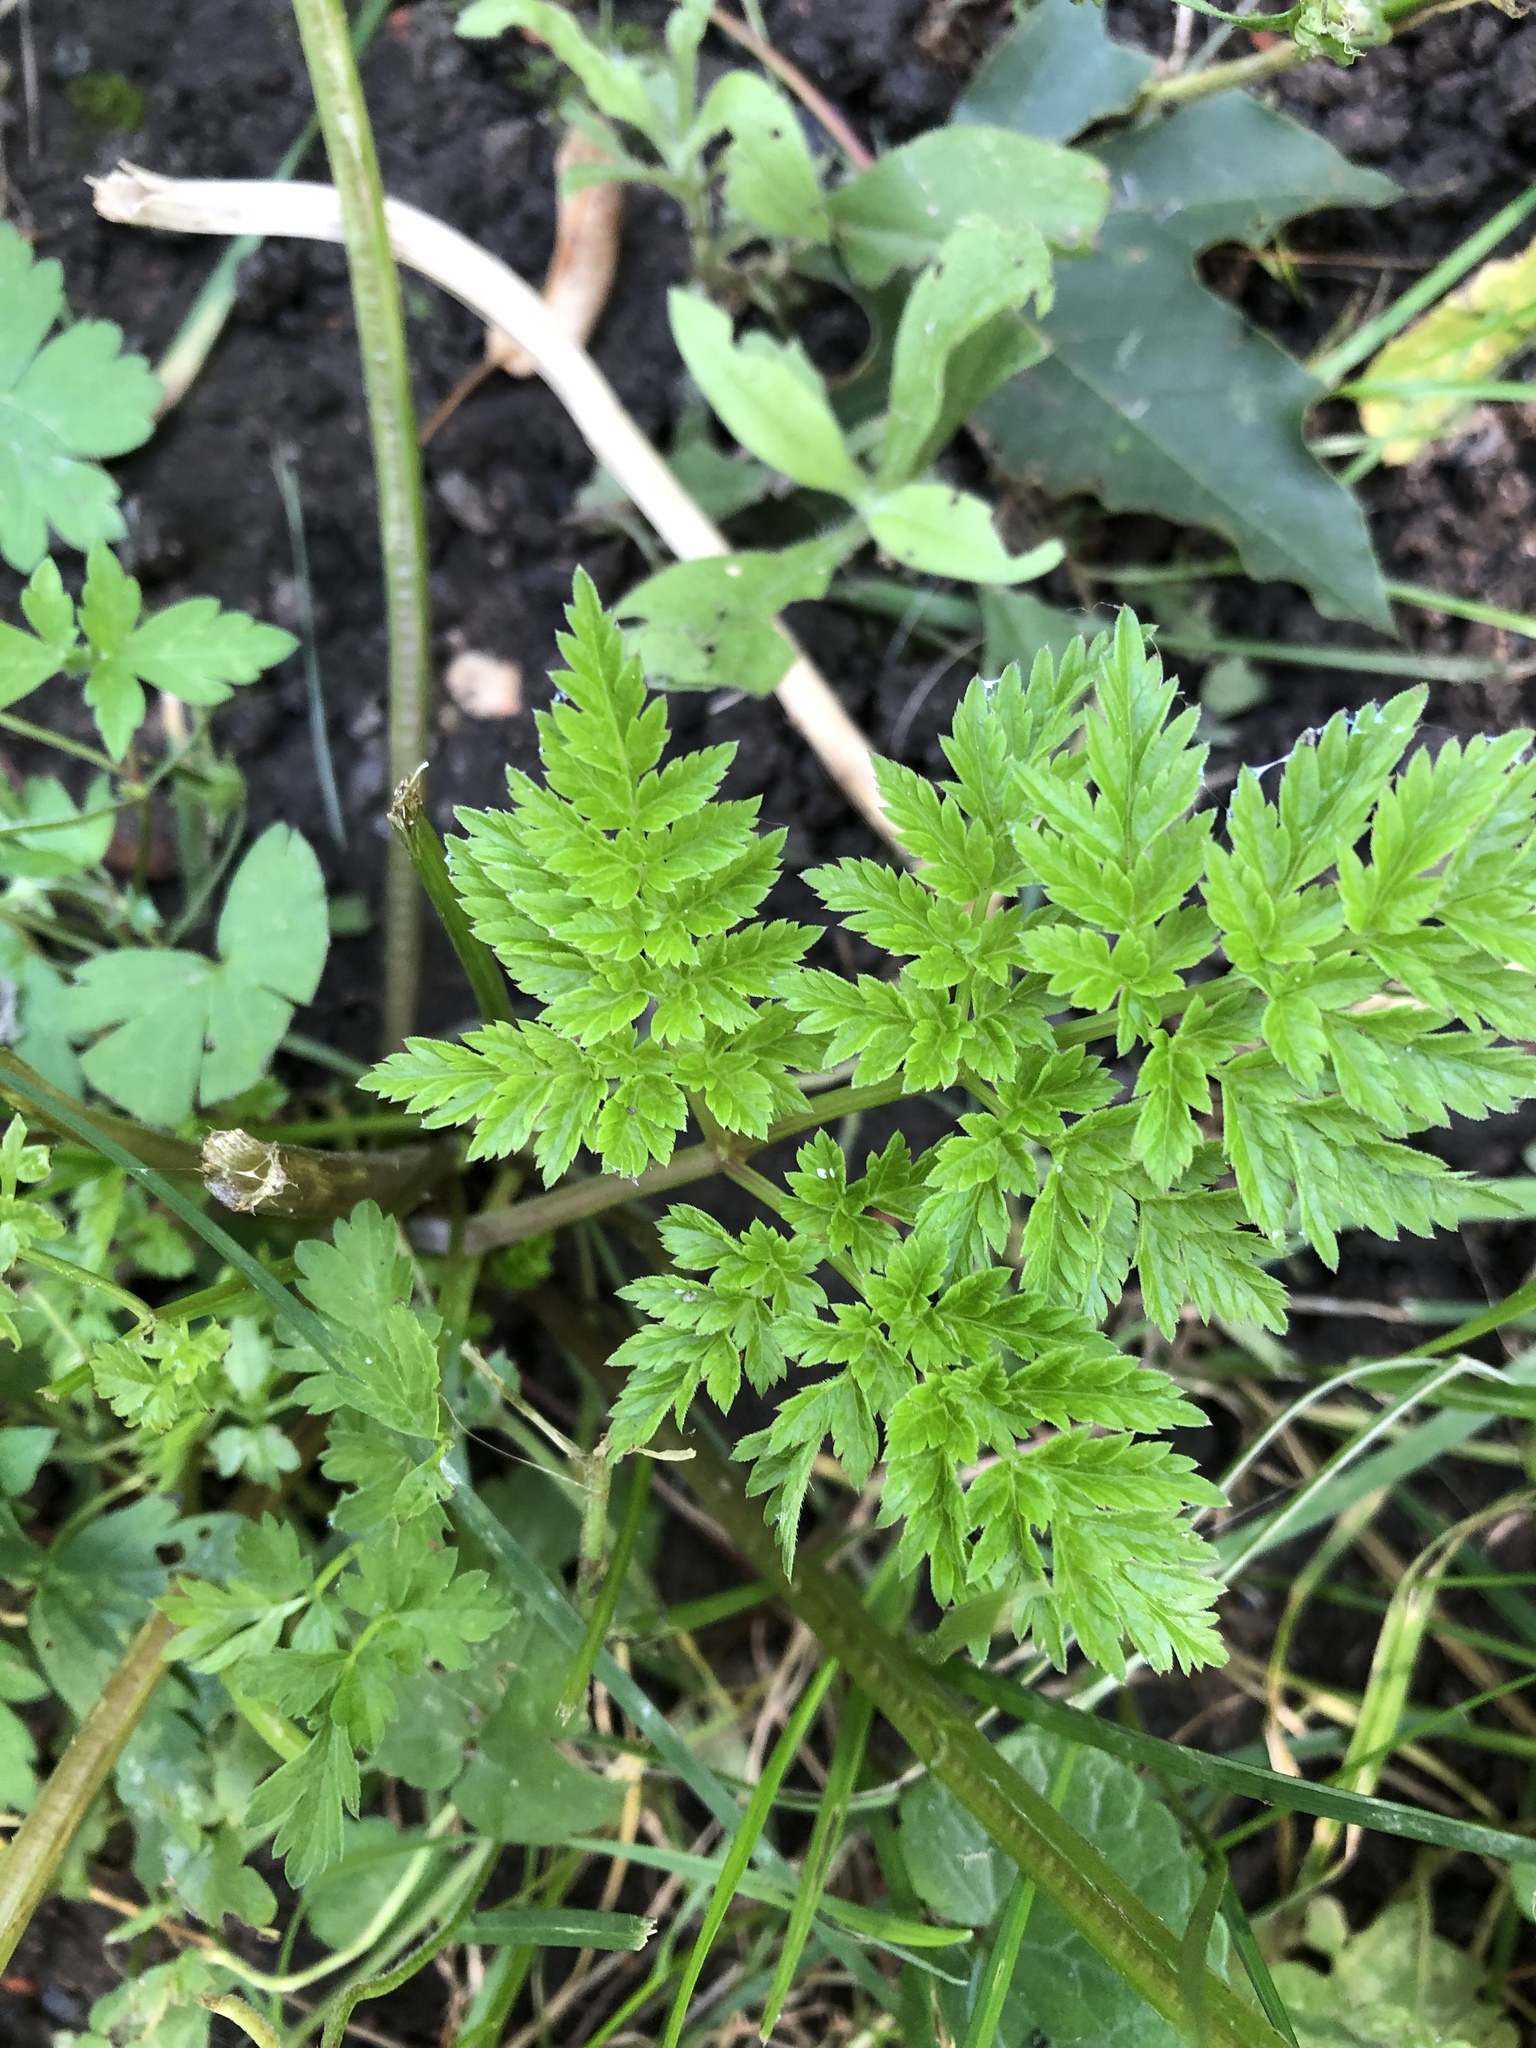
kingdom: Plantae
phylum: Tracheophyta
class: Magnoliopsida
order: Apiales
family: Apiaceae
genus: Anthriscus
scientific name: Anthriscus sylvestris
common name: Cow parsley
